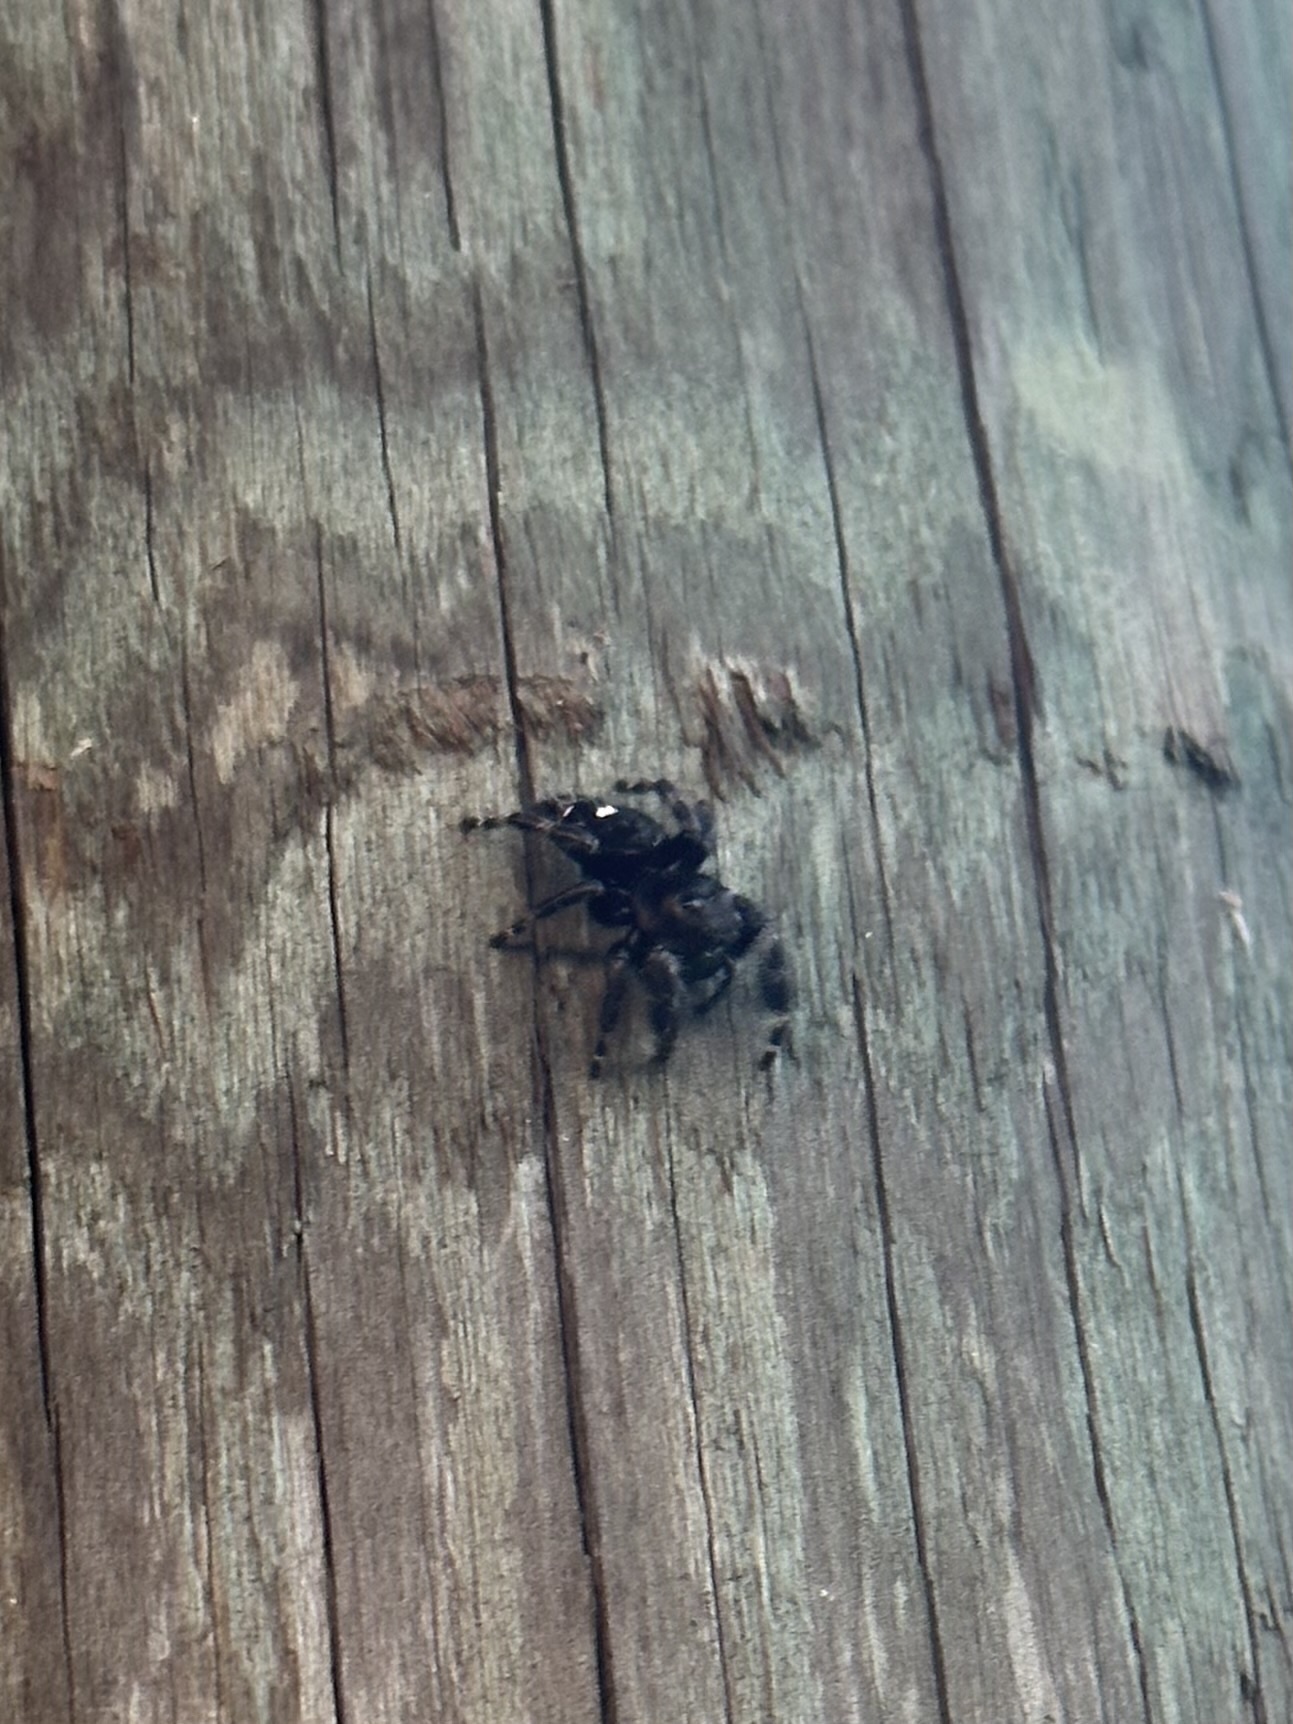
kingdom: Animalia
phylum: Arthropoda
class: Arachnida
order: Araneae
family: Salticidae
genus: Phidippus
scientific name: Phidippus audax
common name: Bold jumper
